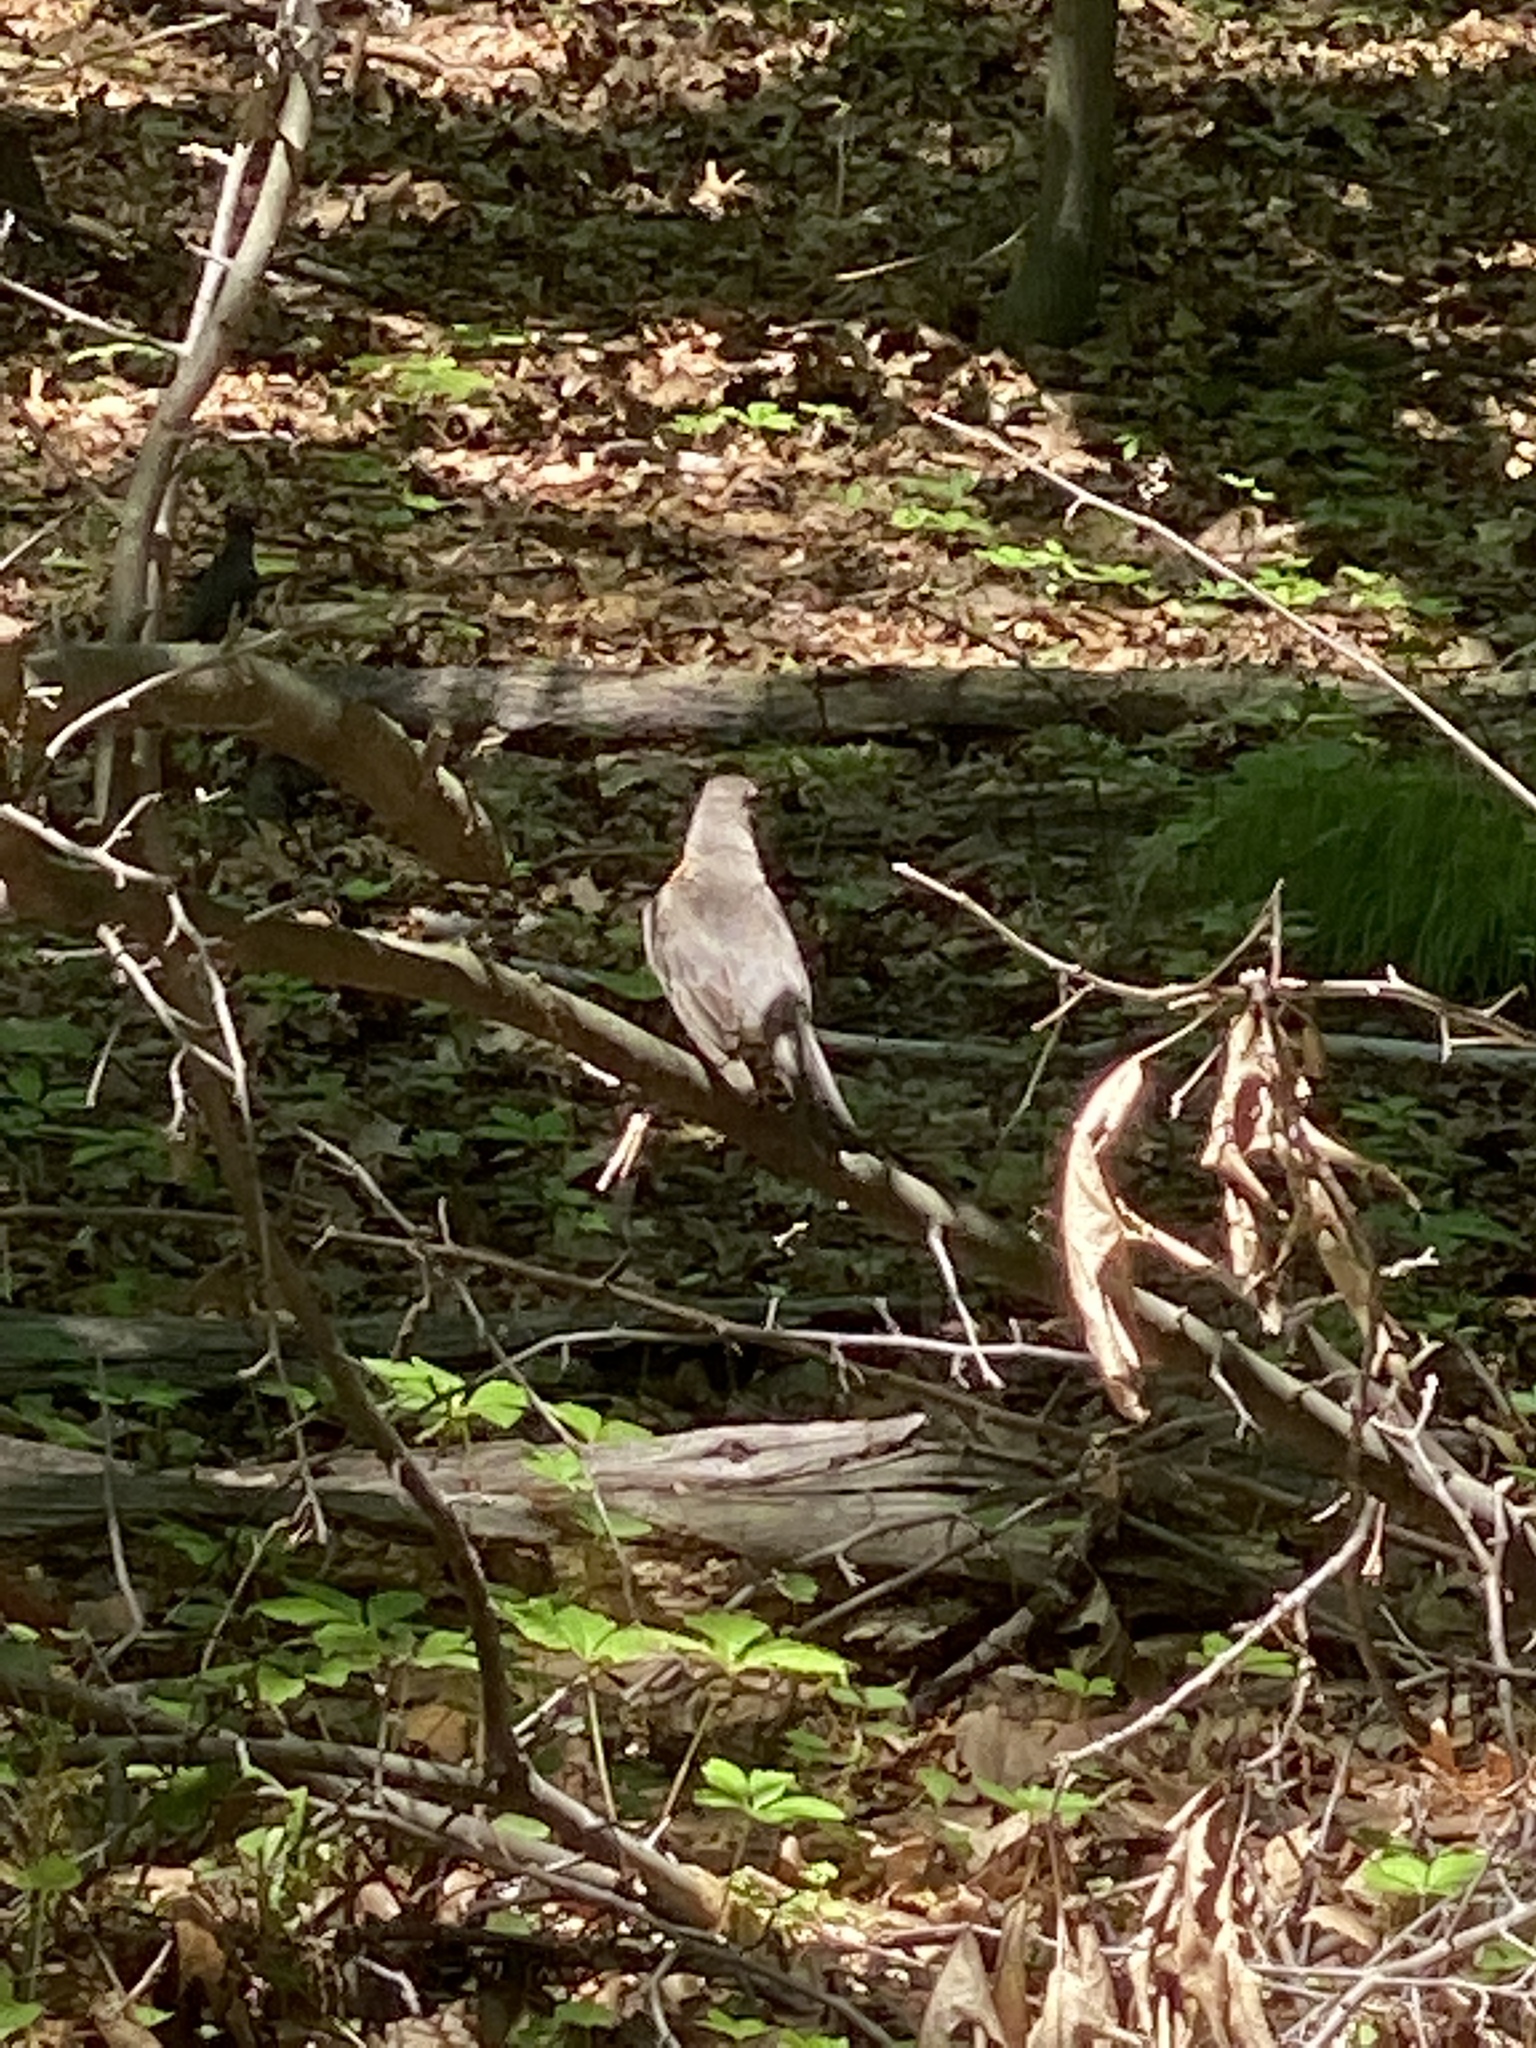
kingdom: Animalia
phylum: Chordata
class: Aves
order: Passeriformes
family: Turdidae
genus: Turdus
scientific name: Turdus migratorius
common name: American robin
